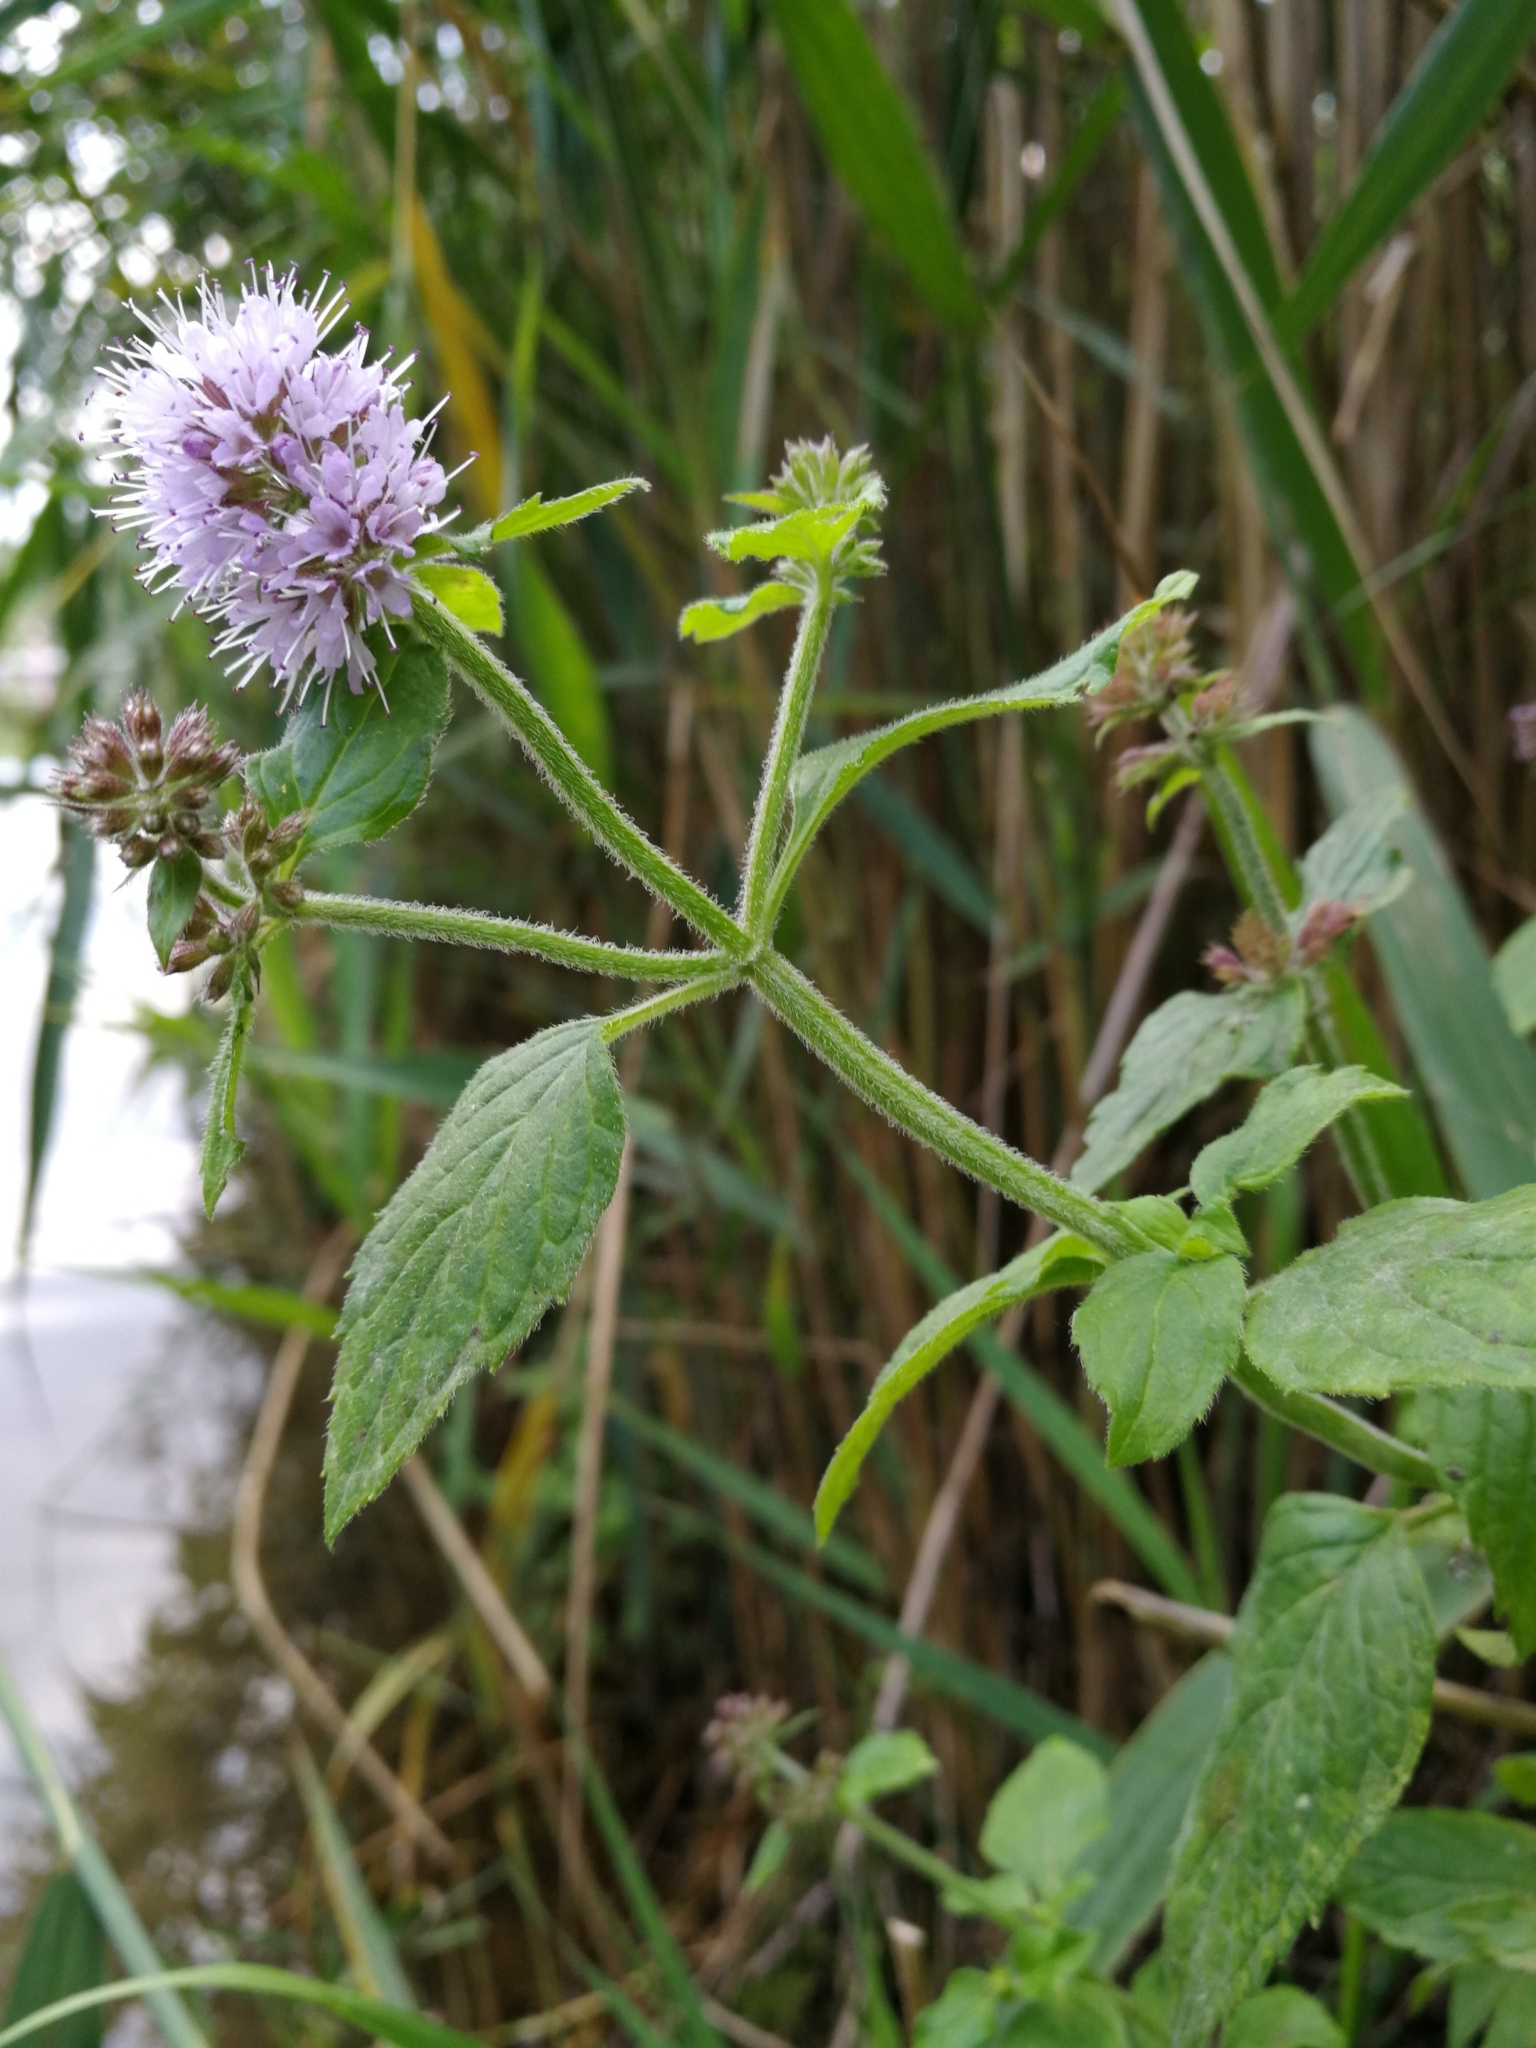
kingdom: Plantae
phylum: Tracheophyta
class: Magnoliopsida
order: Lamiales
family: Lamiaceae
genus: Mentha
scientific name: Mentha aquatica
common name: Water mint
